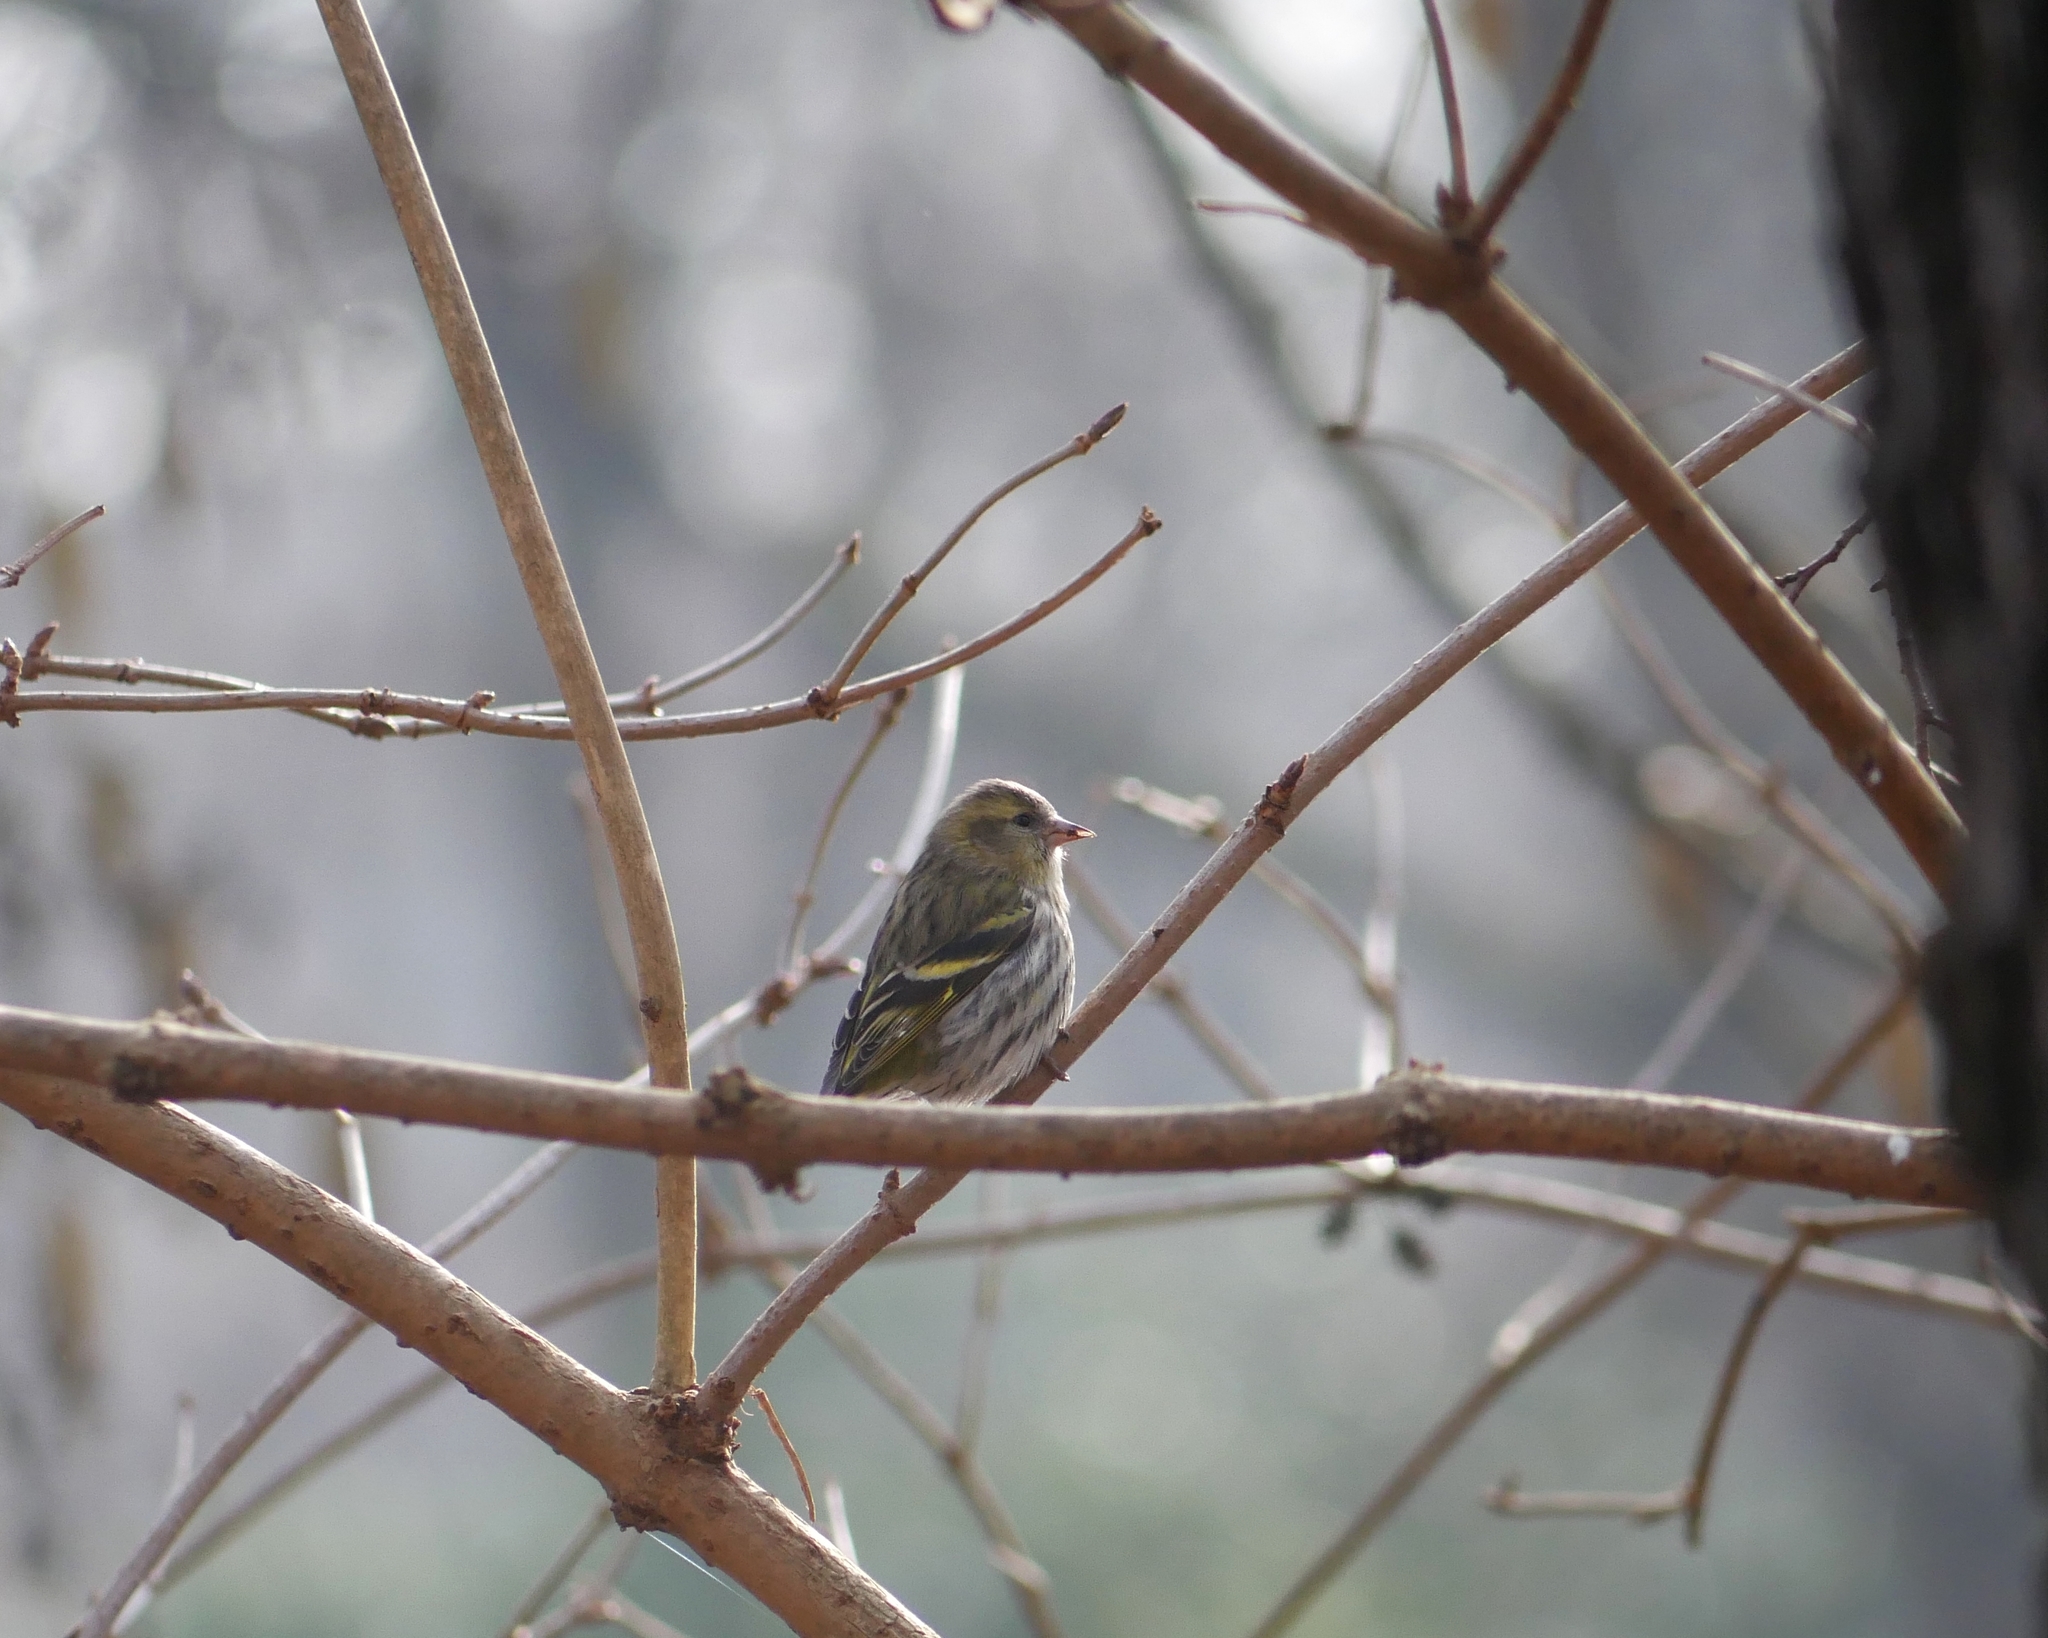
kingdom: Animalia
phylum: Chordata
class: Aves
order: Passeriformes
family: Fringillidae
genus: Spinus
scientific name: Spinus spinus
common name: Eurasian siskin
